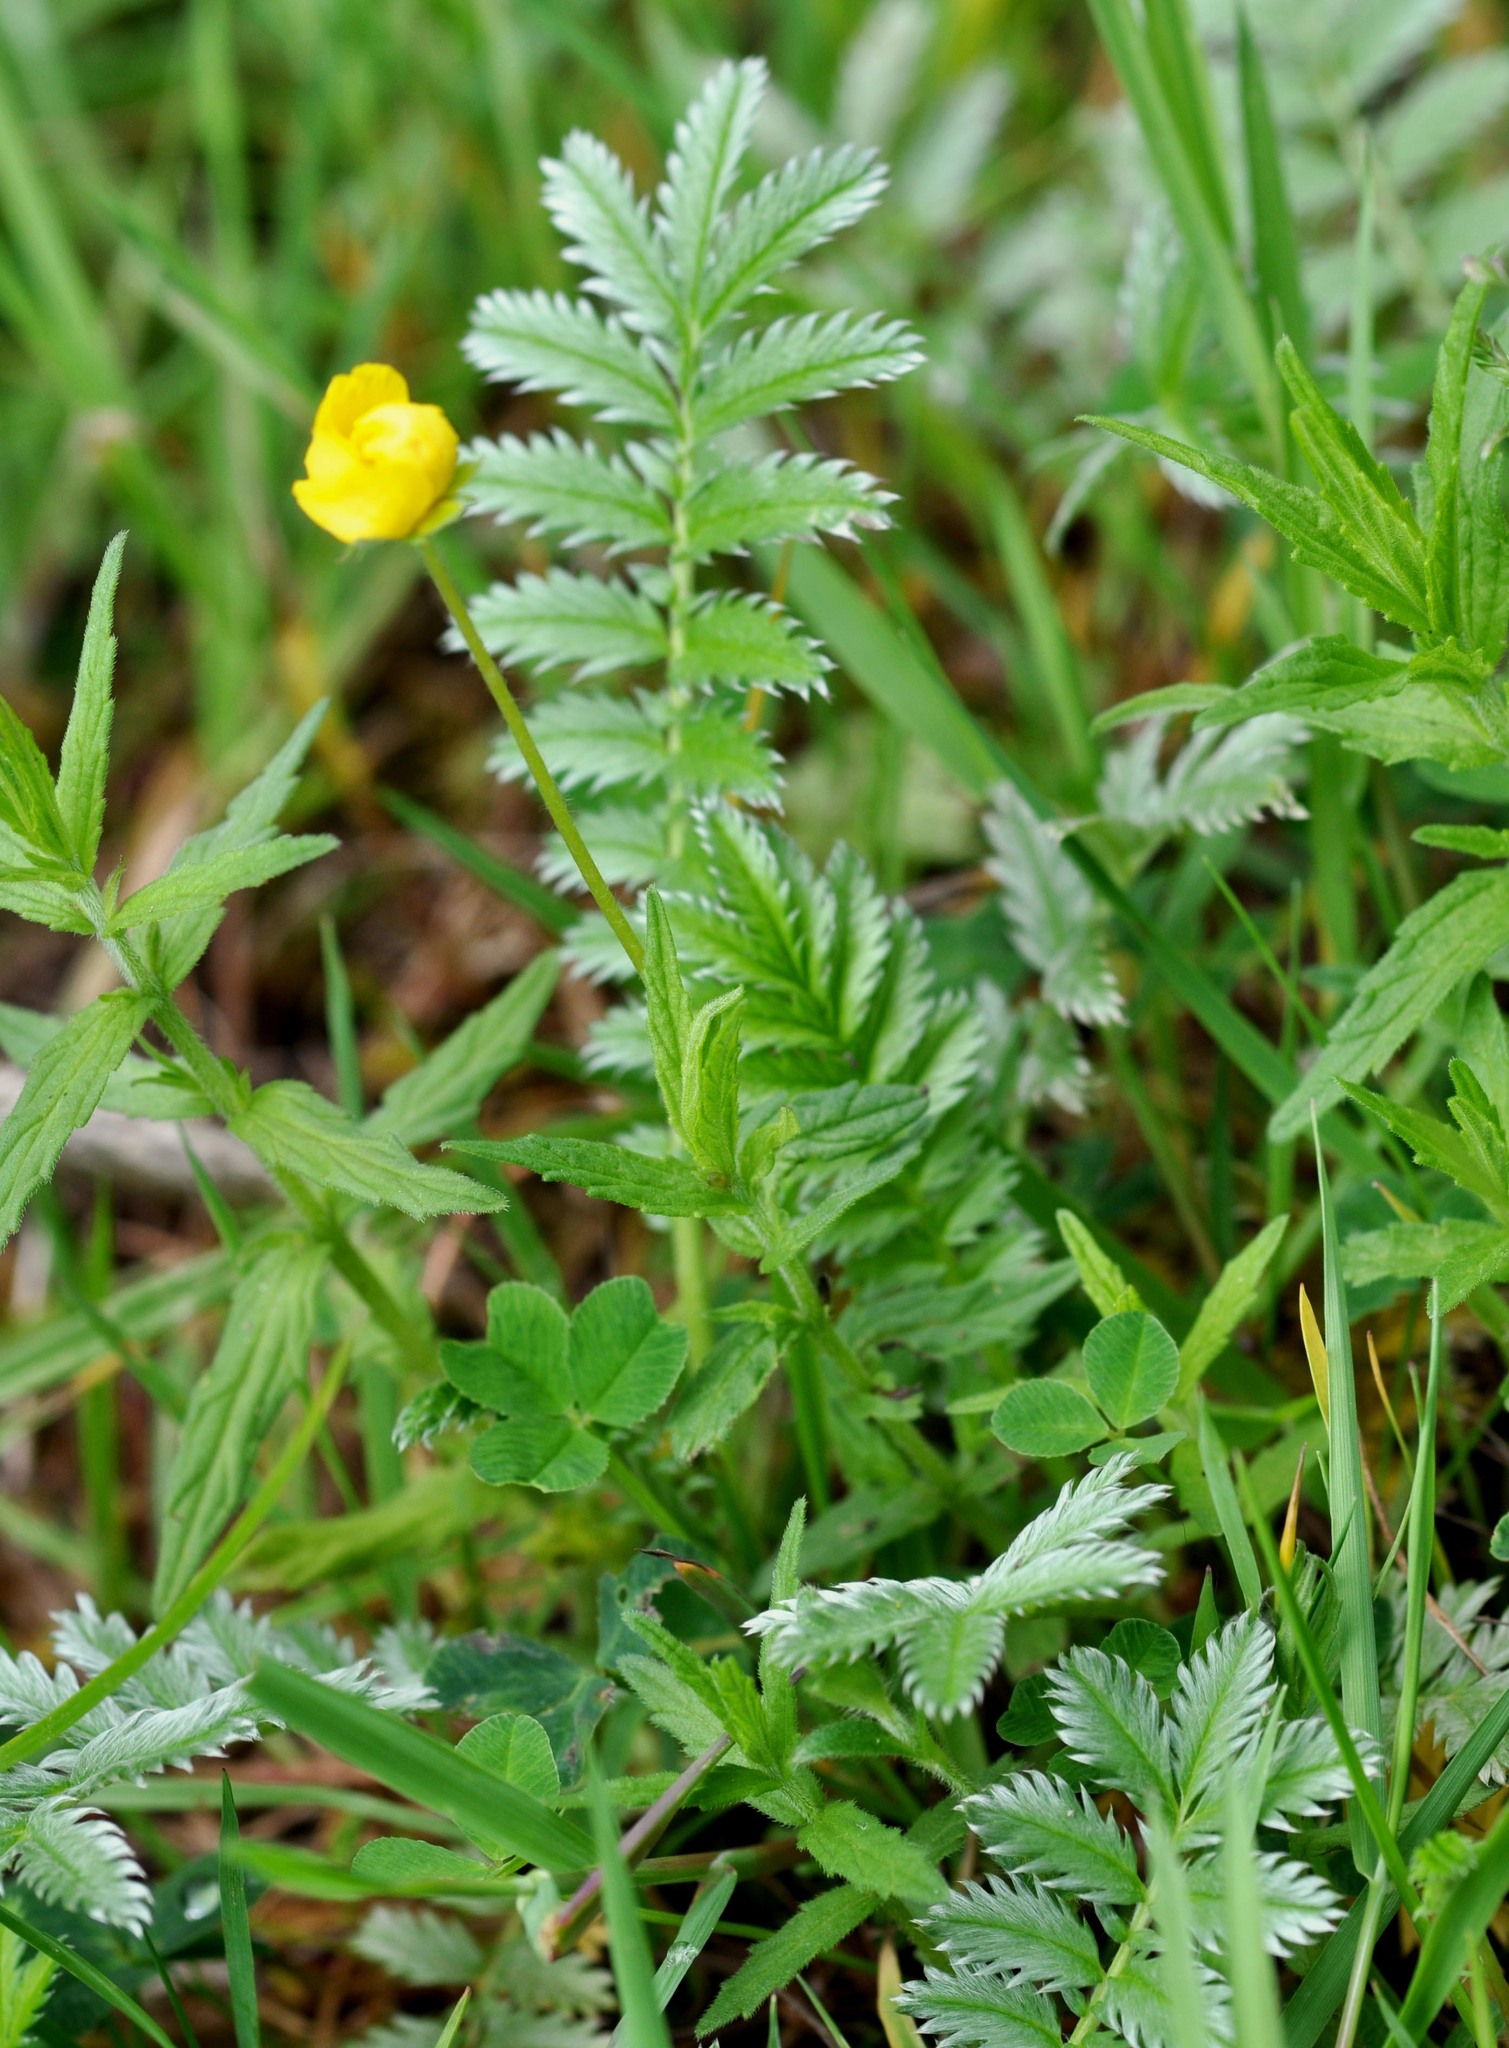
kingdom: Plantae
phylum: Tracheophyta
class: Magnoliopsida
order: Rosales
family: Rosaceae
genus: Argentina
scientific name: Argentina anserina
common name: Common silverweed
